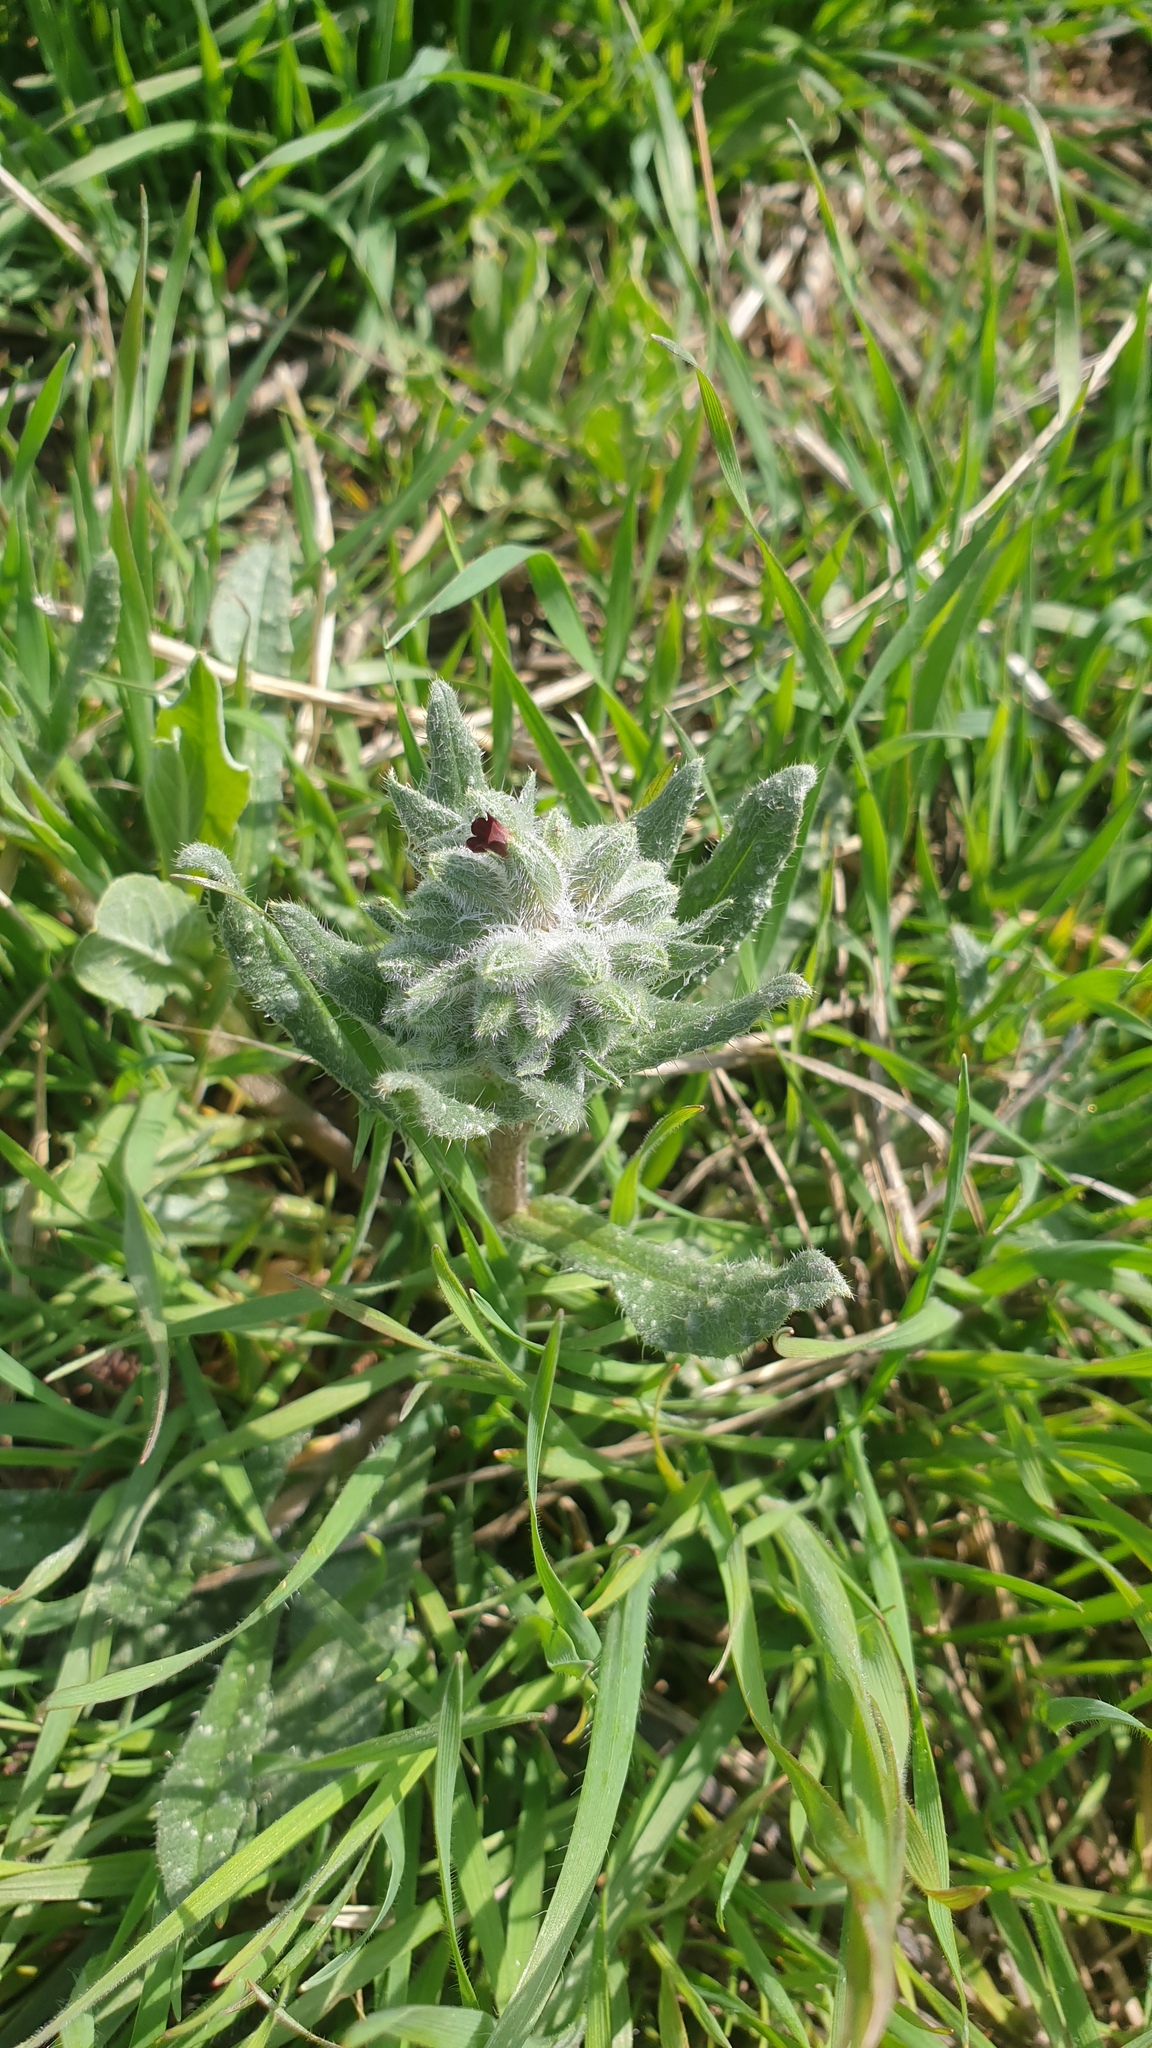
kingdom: Plantae
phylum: Tracheophyta
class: Magnoliopsida
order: Boraginales
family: Boraginaceae
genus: Nonea
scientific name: Nonea pulla
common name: Brown nonea
